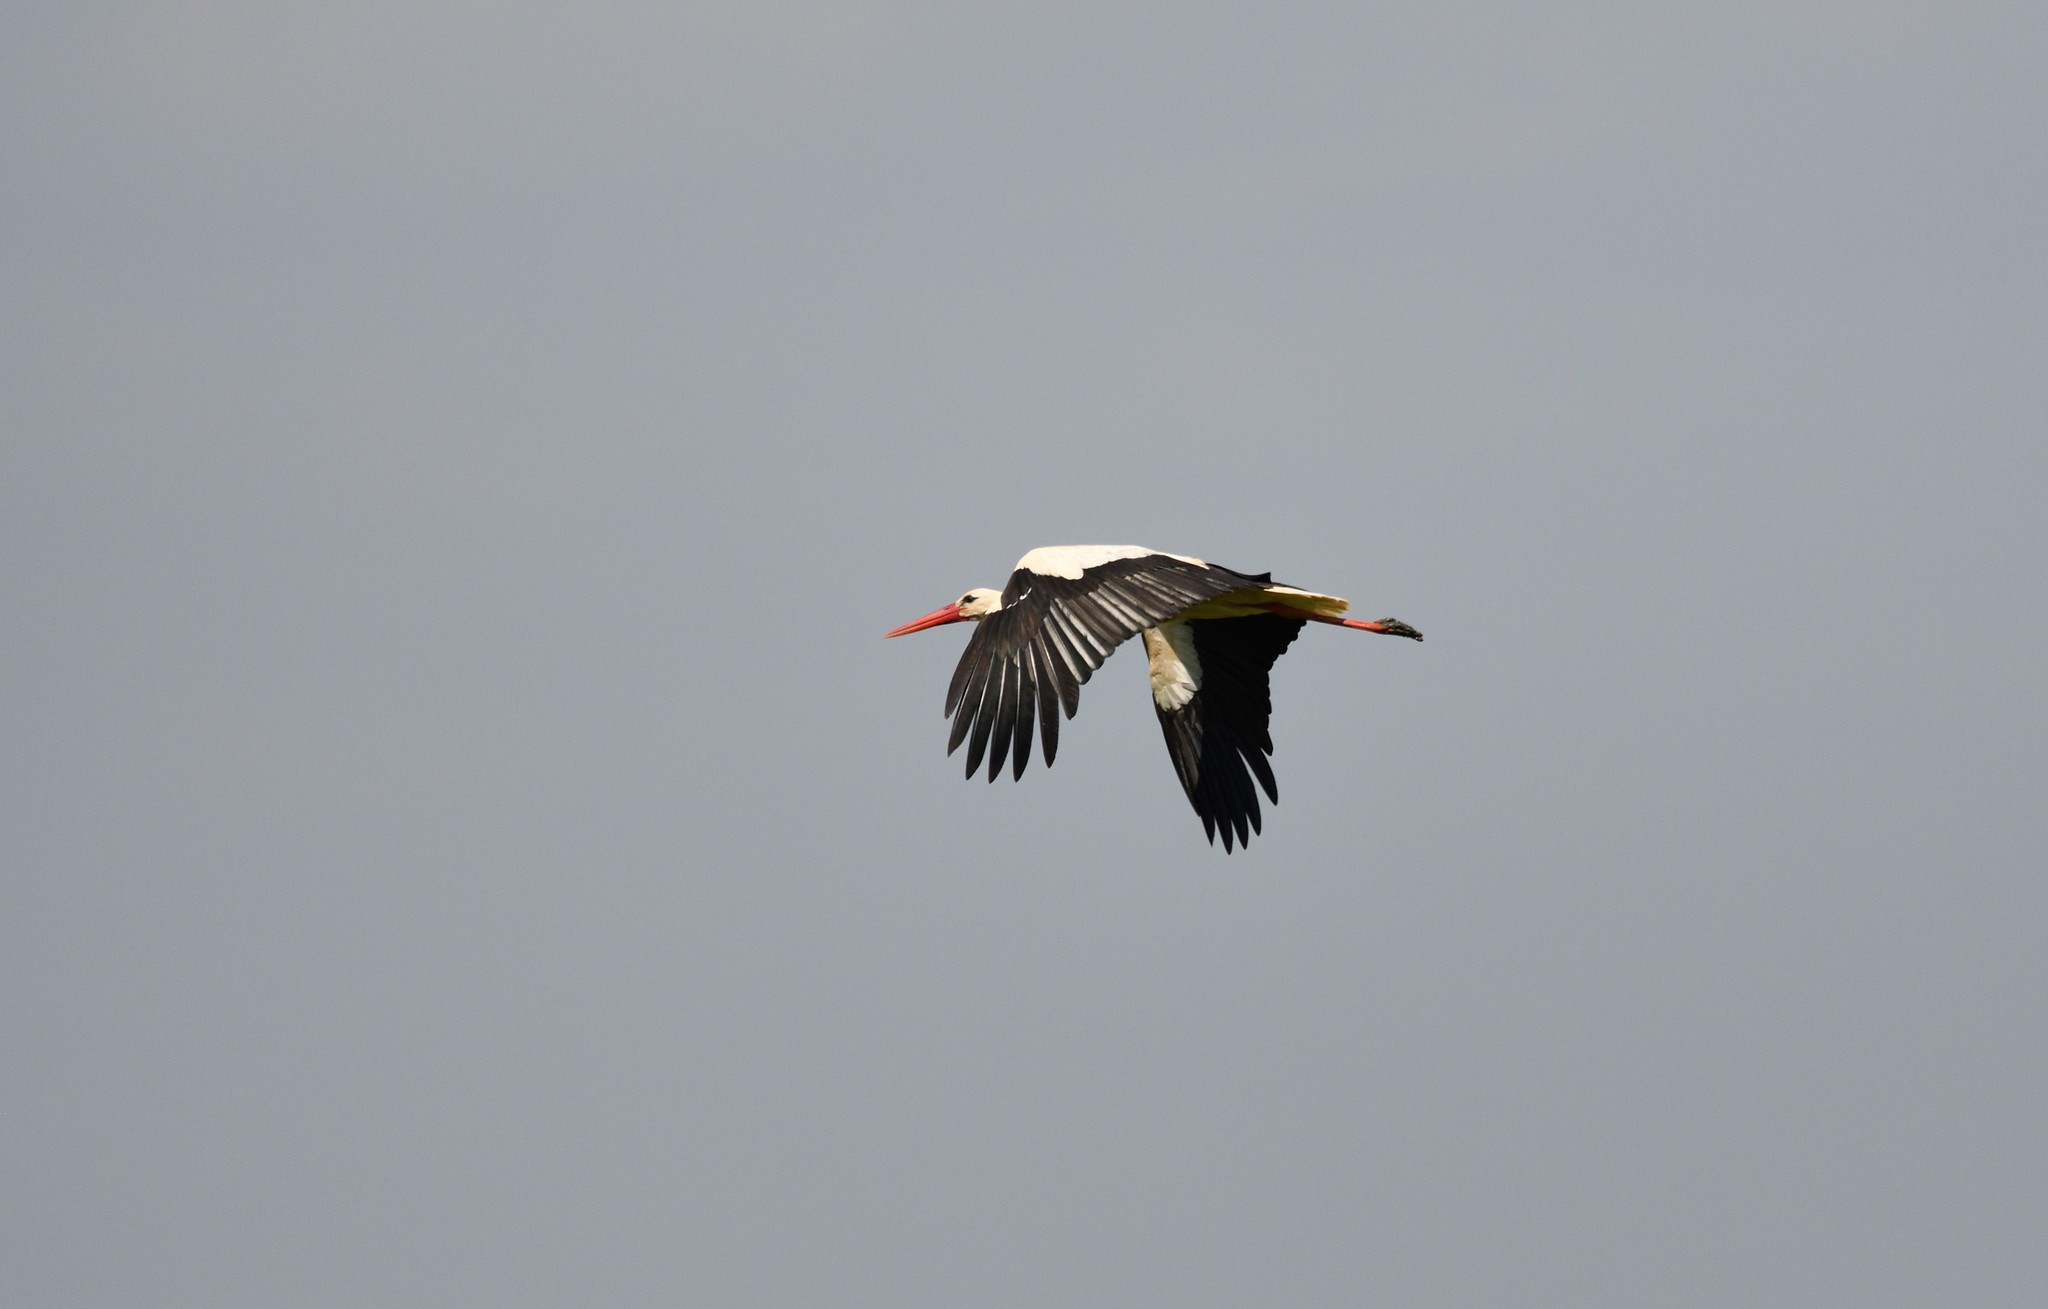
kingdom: Animalia
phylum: Chordata
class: Aves
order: Ciconiiformes
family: Ciconiidae
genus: Ciconia
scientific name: Ciconia ciconia
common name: White stork
